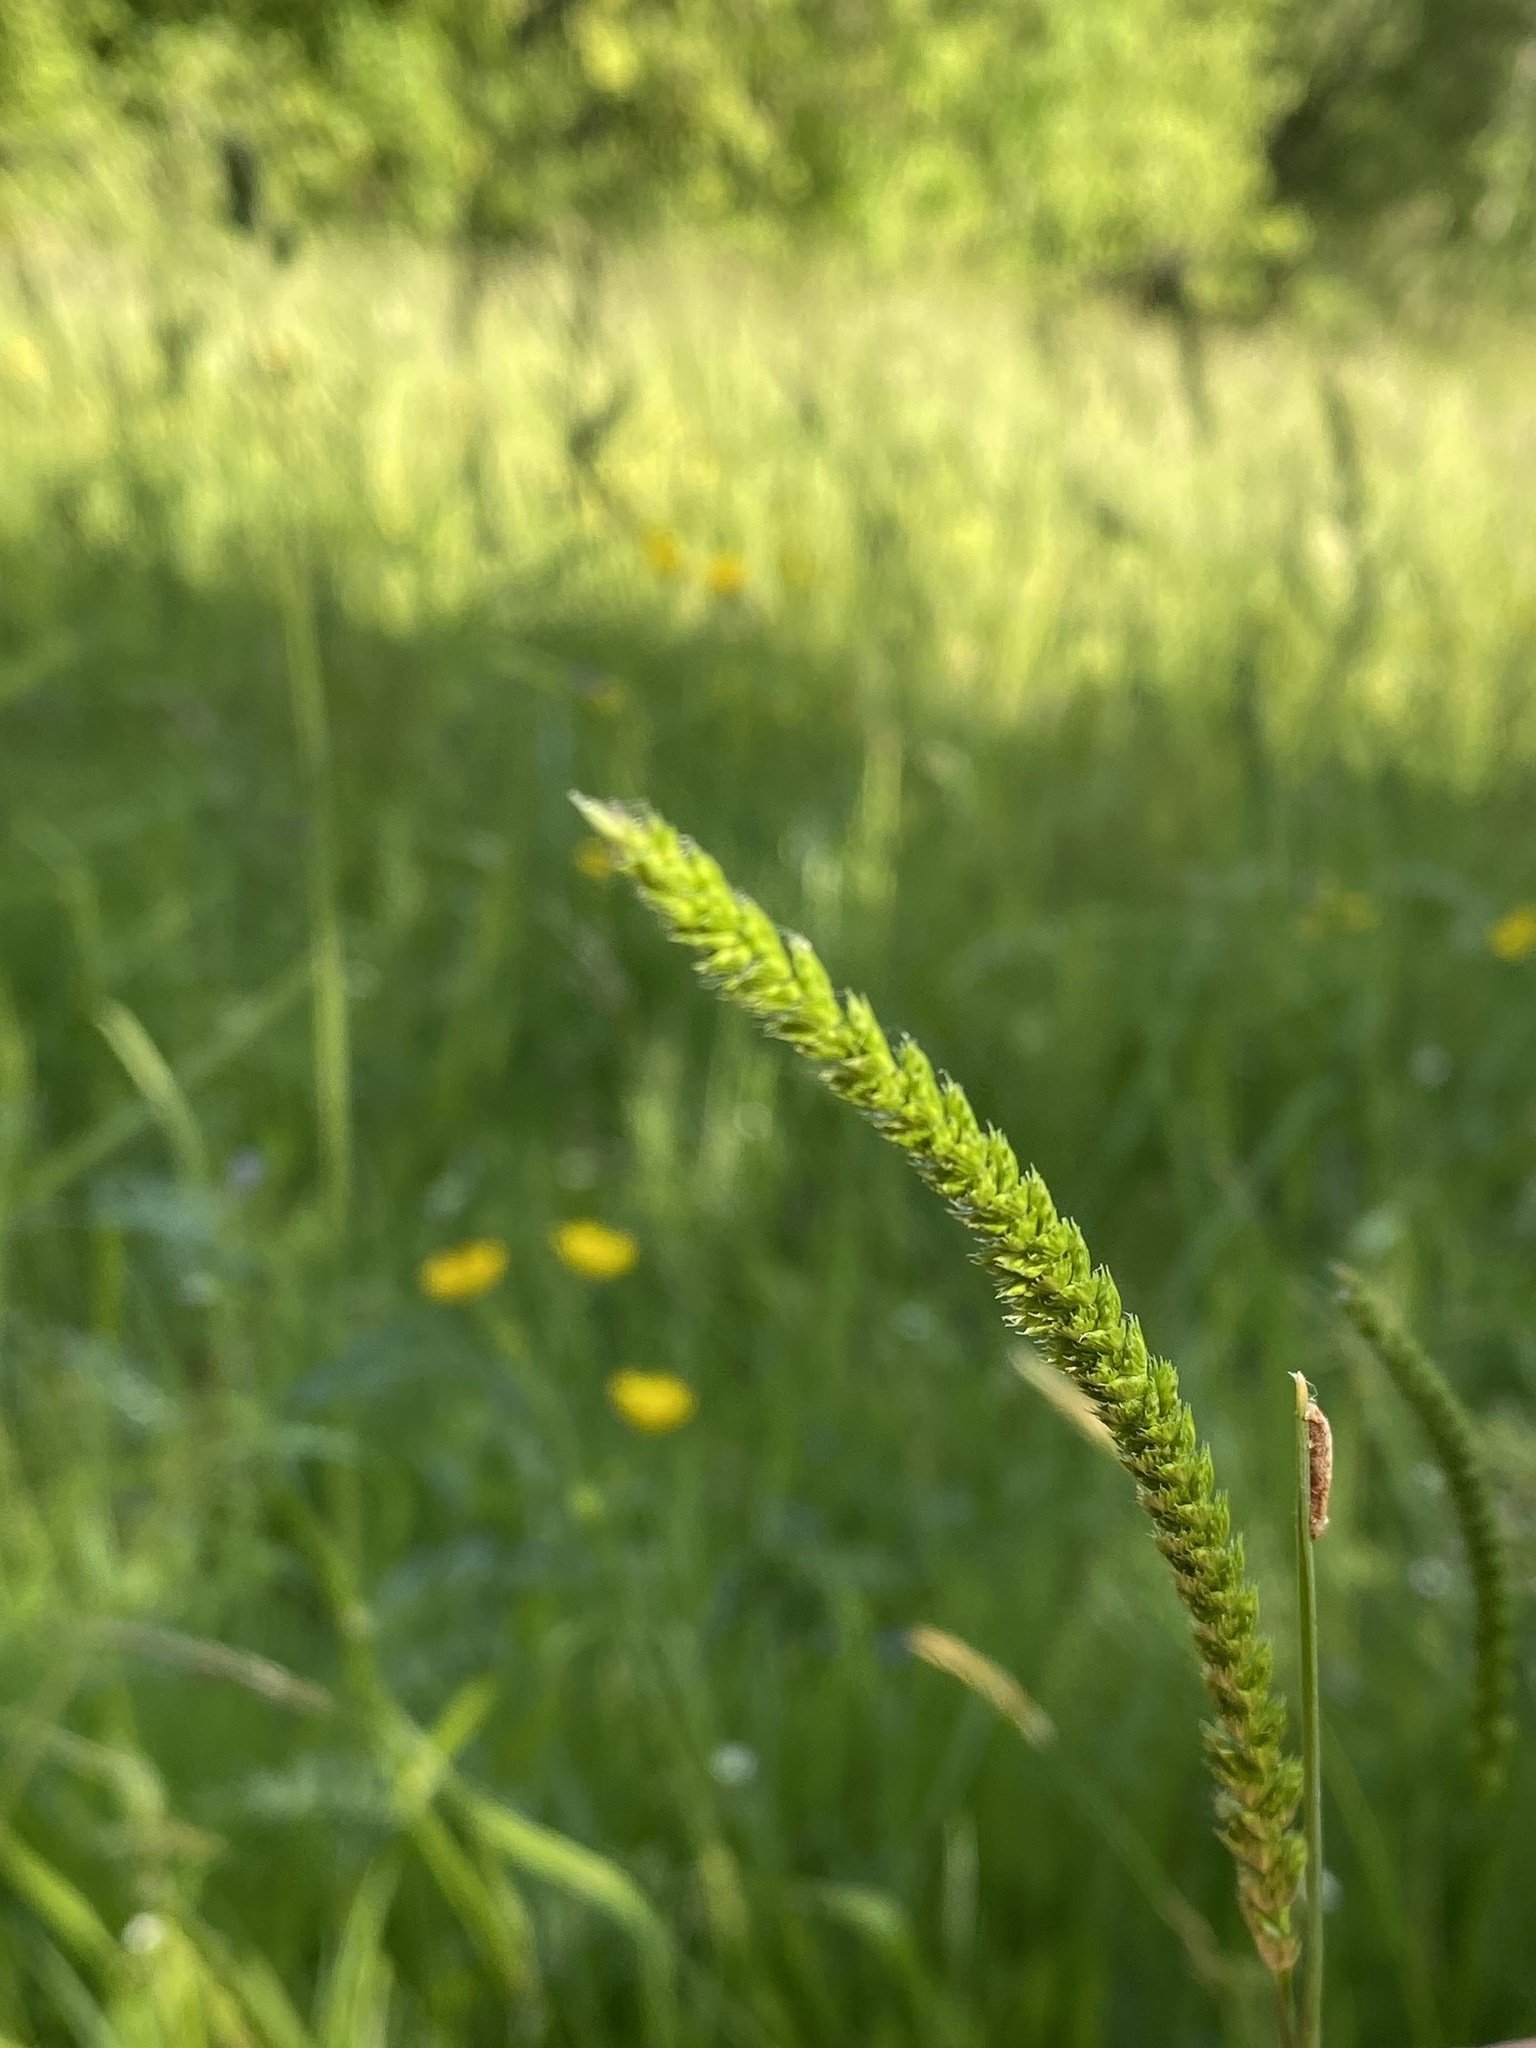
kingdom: Plantae
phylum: Tracheophyta
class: Liliopsida
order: Poales
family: Poaceae
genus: Cynosurus
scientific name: Cynosurus cristatus
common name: Crested dog's-tail
